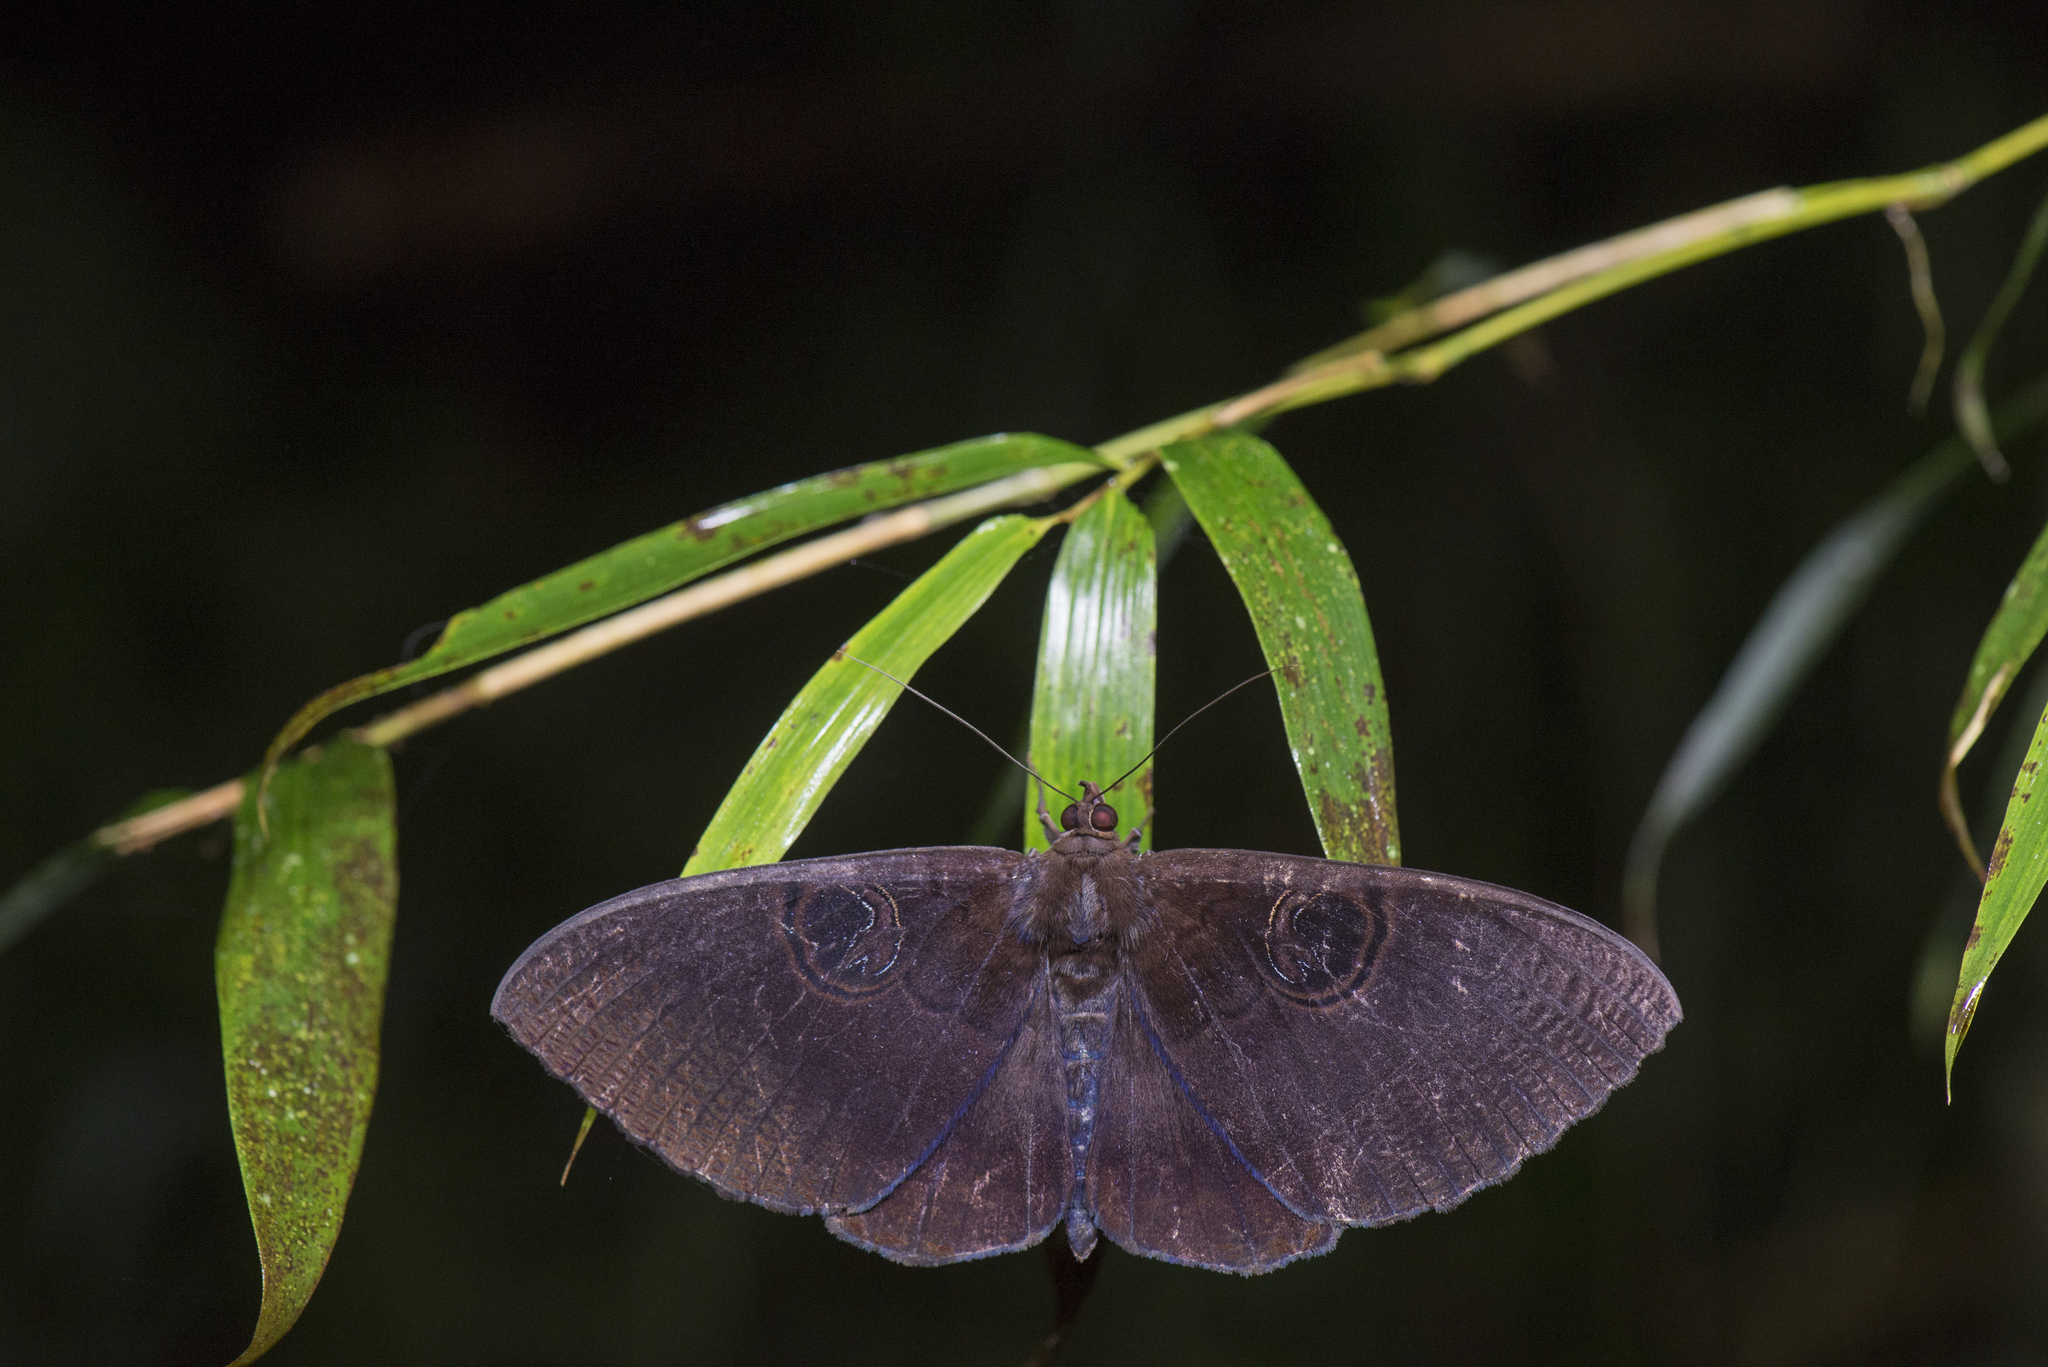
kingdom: Animalia
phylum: Arthropoda
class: Insecta
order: Lepidoptera
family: Erebidae
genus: Erebus
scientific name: Erebus caprimulgus
